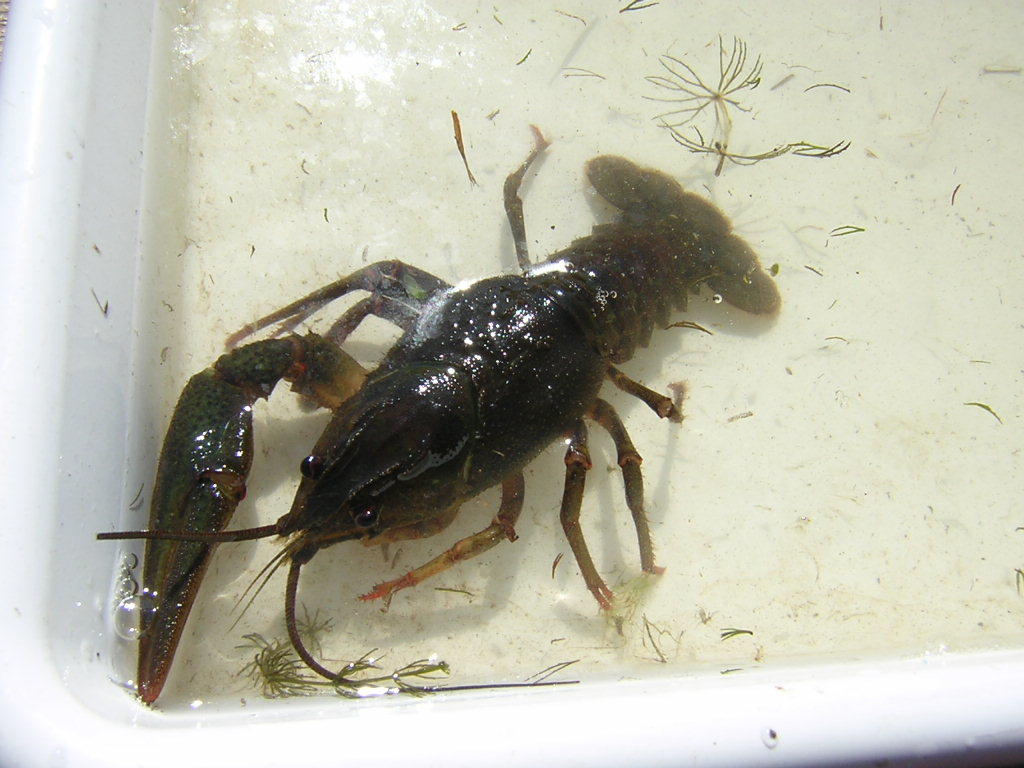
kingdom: Animalia
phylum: Arthropoda
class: Malacostraca
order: Decapoda
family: Astacidae
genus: Pontastacus
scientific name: Pontastacus leptodactylus
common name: Danube crayfish
